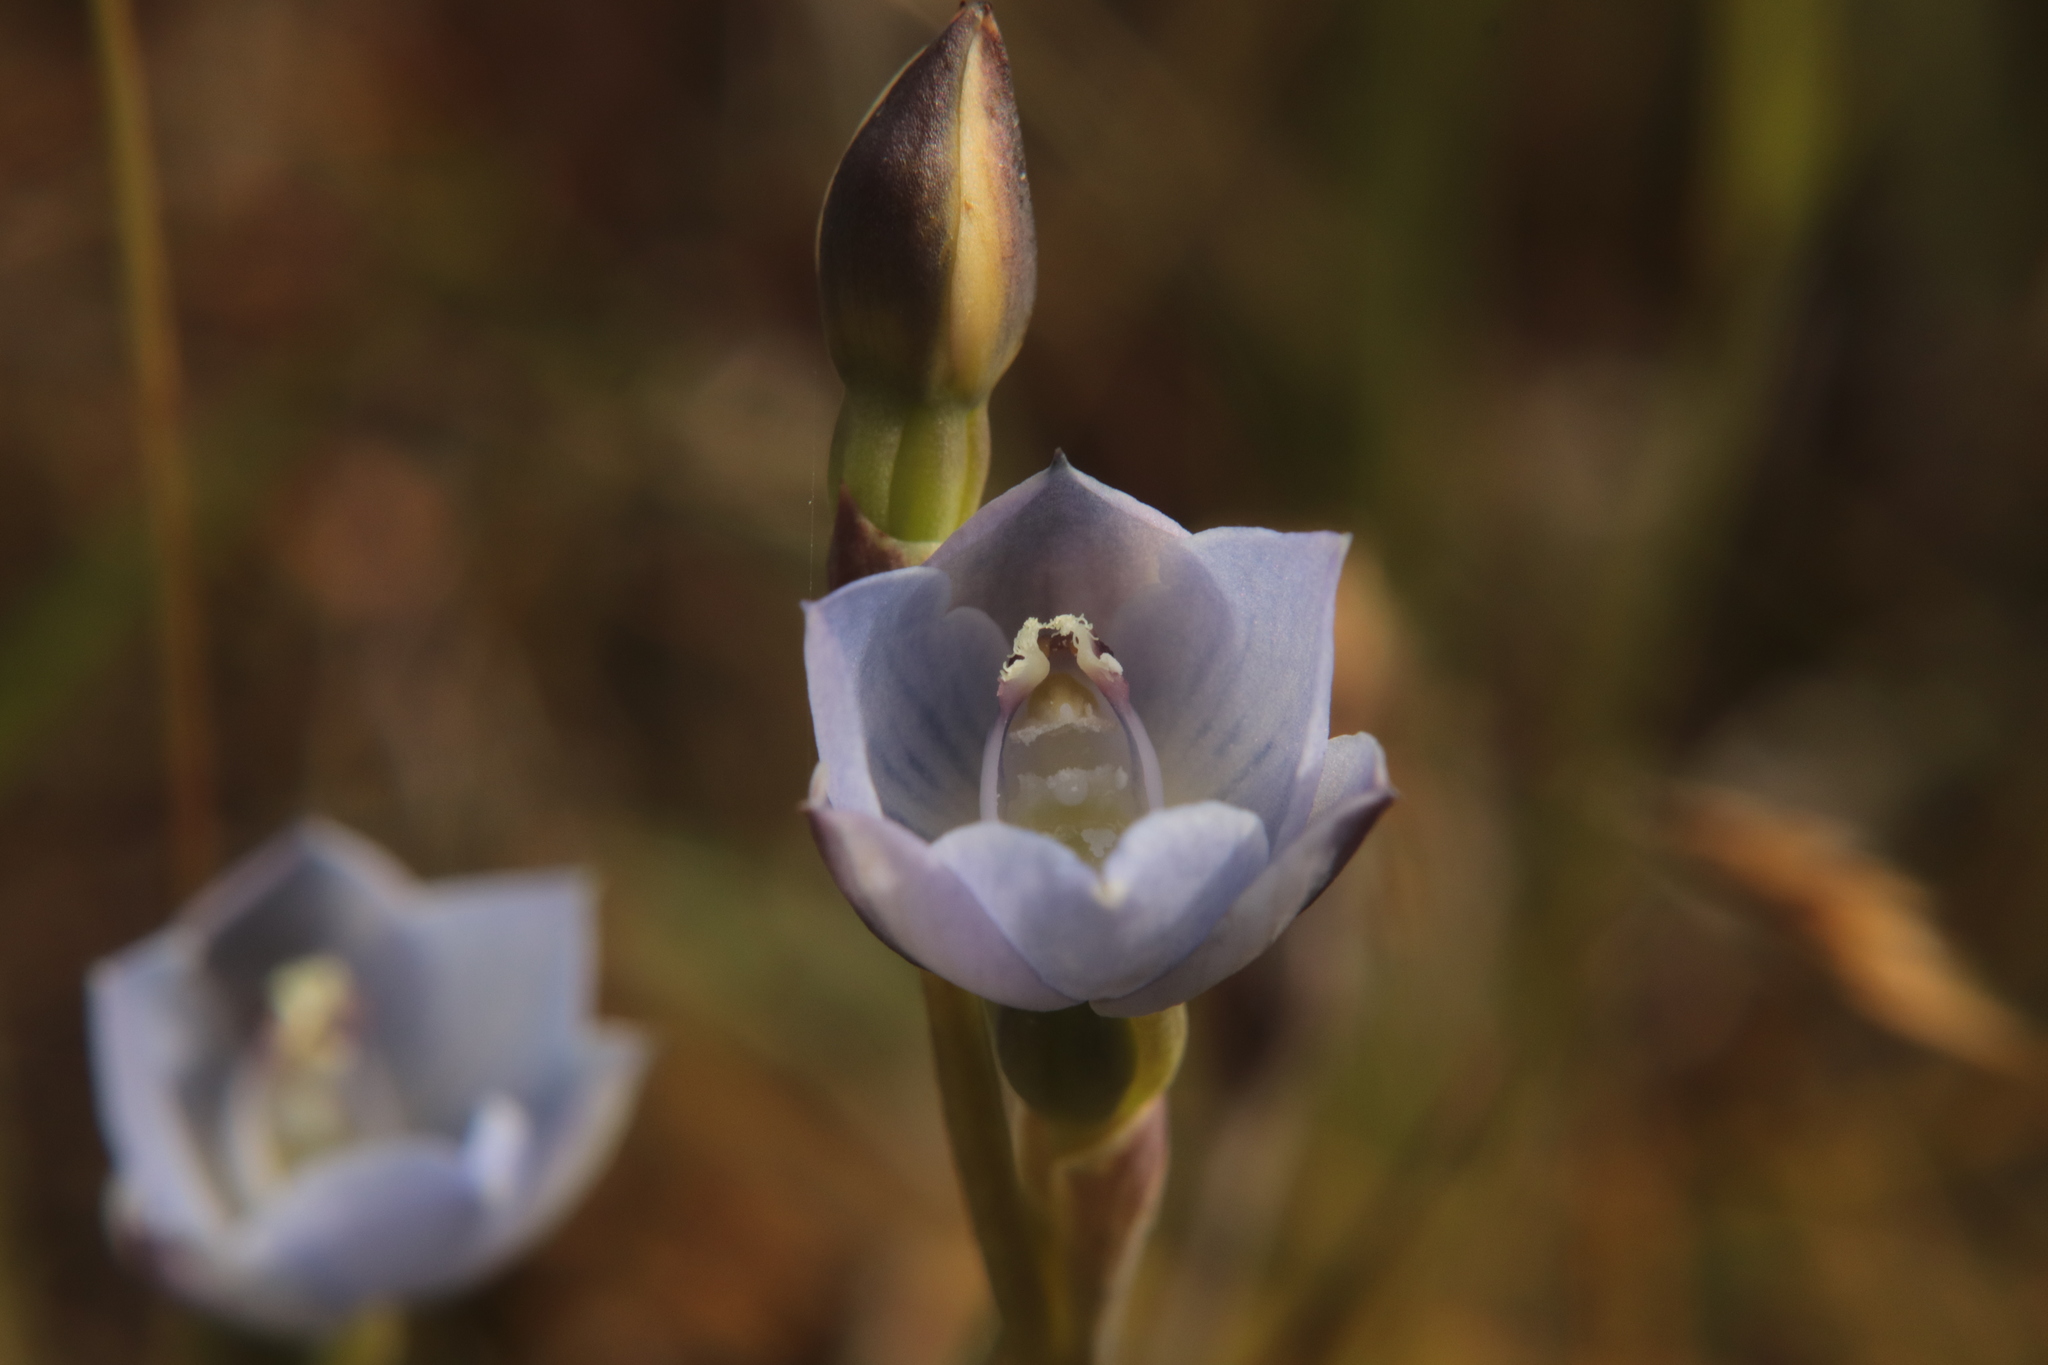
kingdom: Plantae
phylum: Tracheophyta
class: Liliopsida
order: Asparagales
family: Orchidaceae
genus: Thelymitra
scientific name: Thelymitra pulchella
